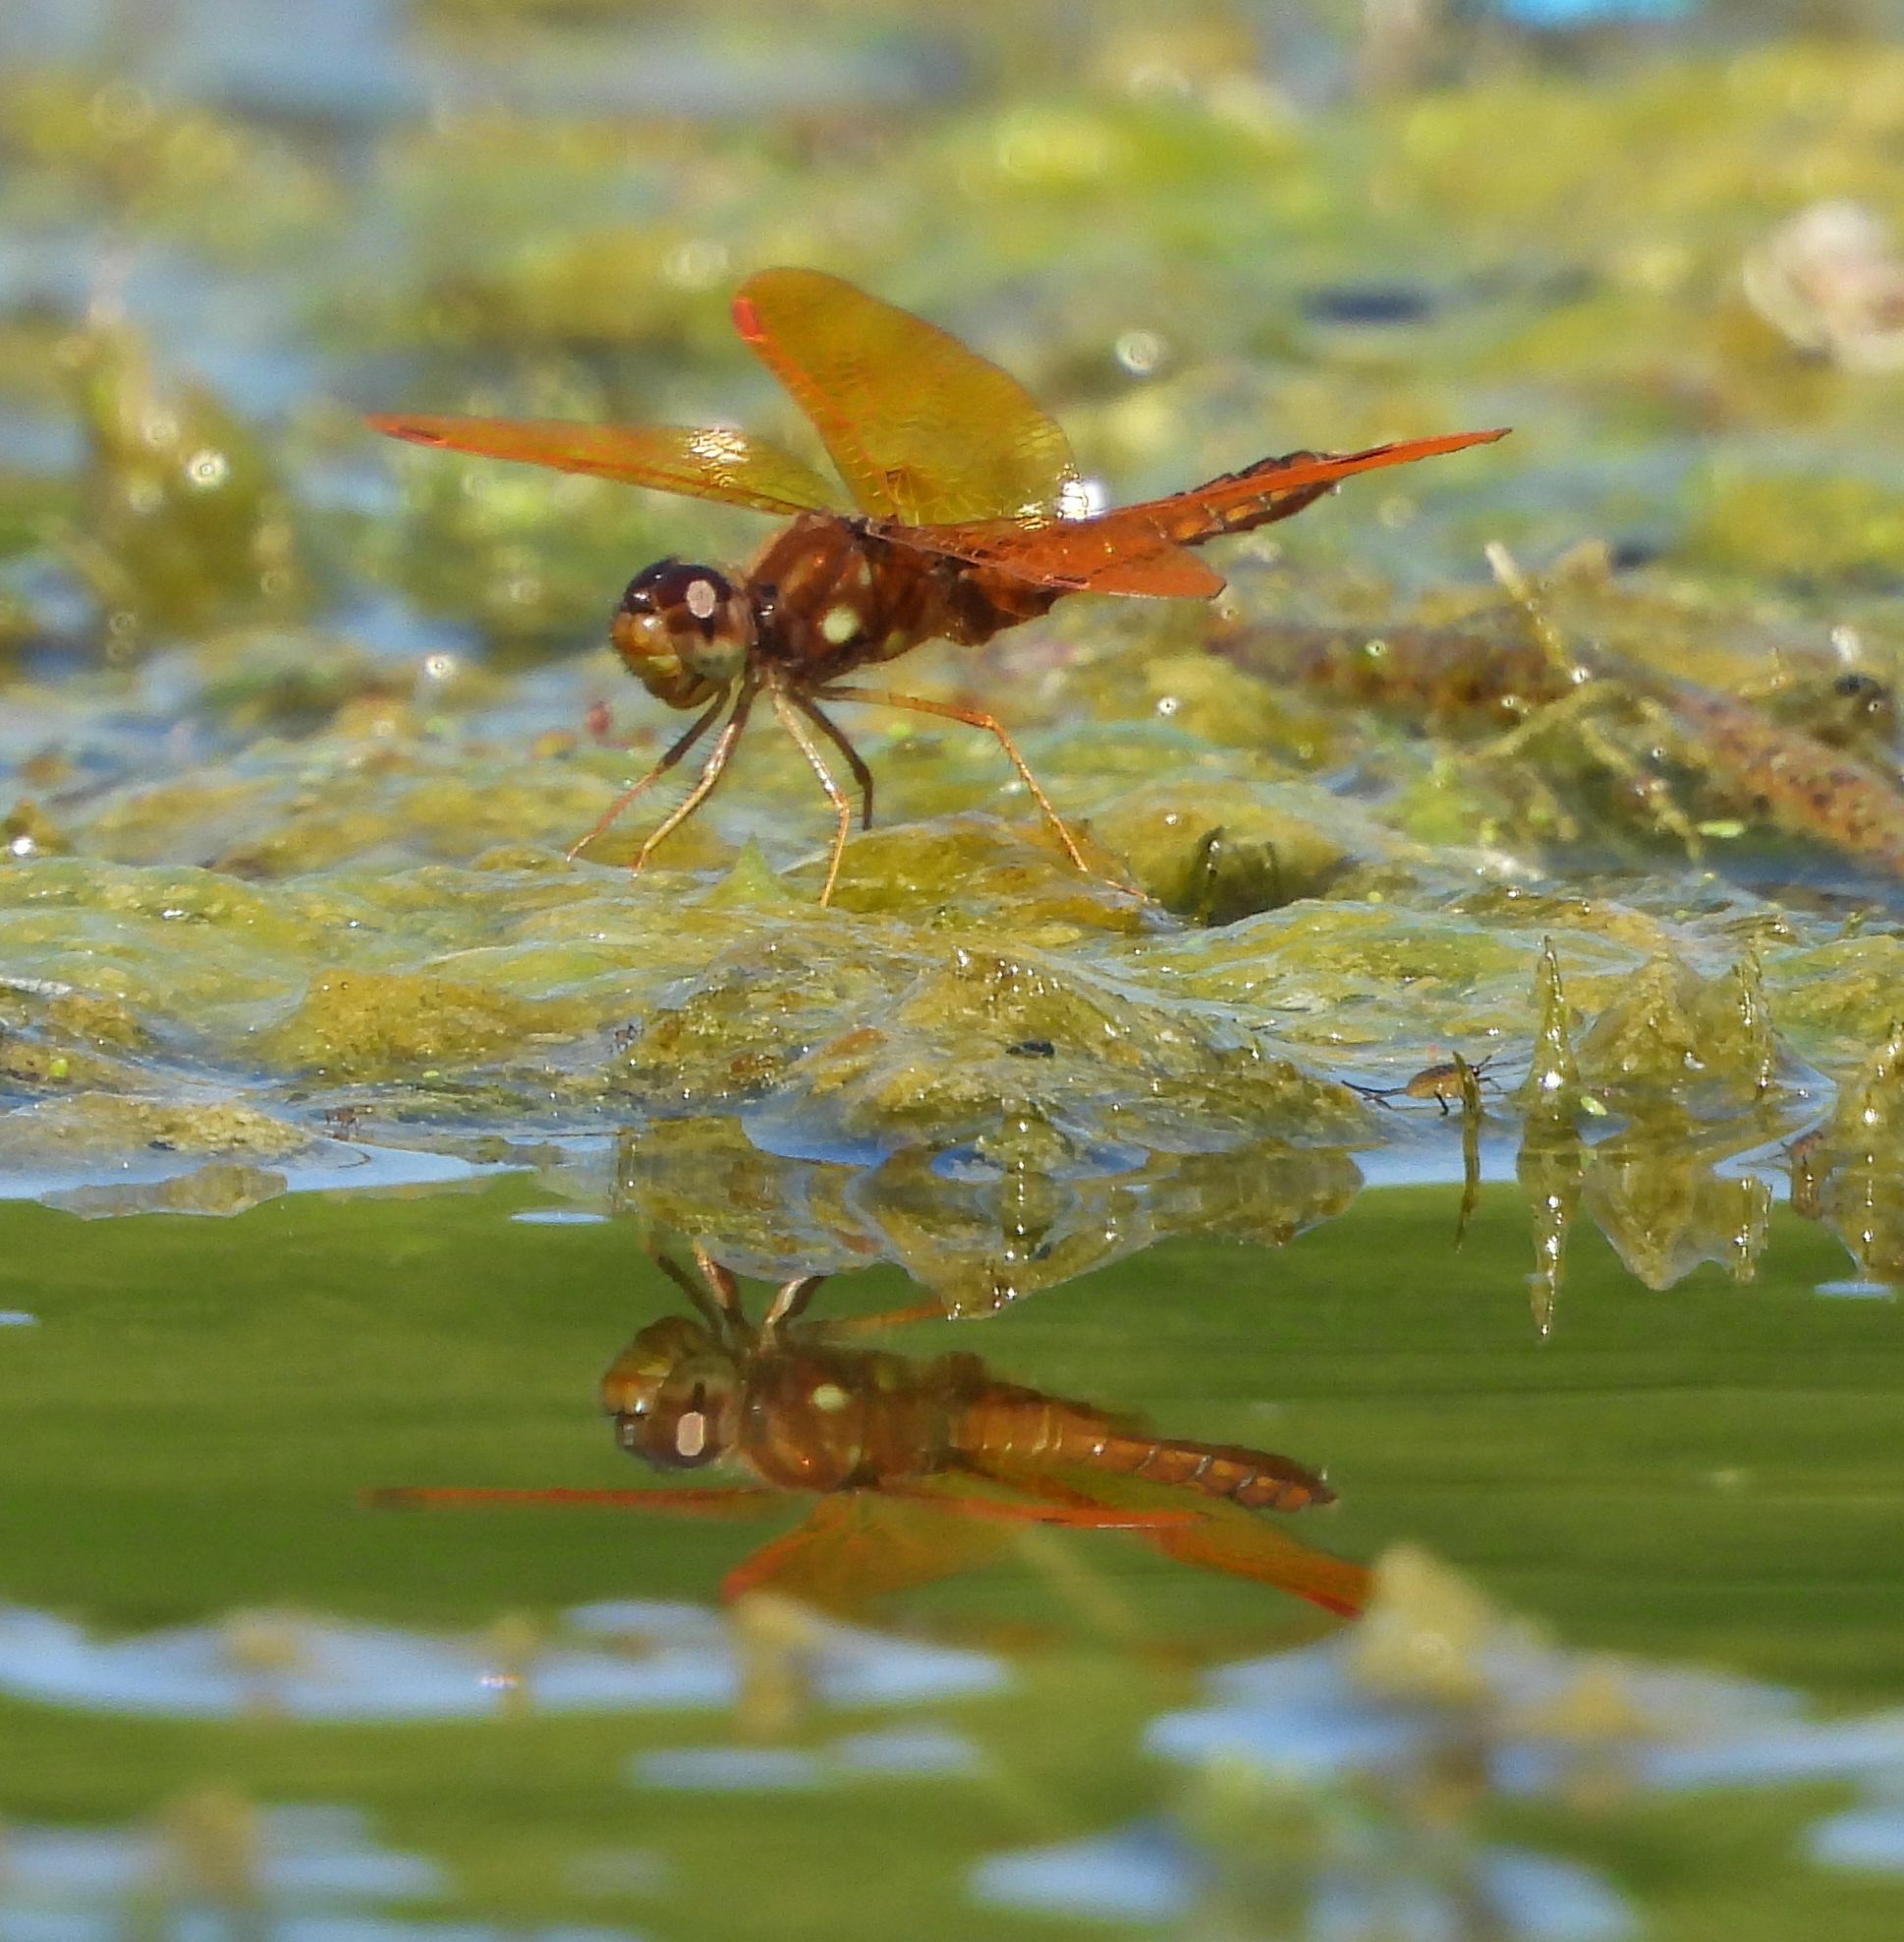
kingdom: Animalia
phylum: Arthropoda
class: Insecta
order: Odonata
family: Libellulidae
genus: Perithemis
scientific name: Perithemis tenera
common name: Eastern amberwing
